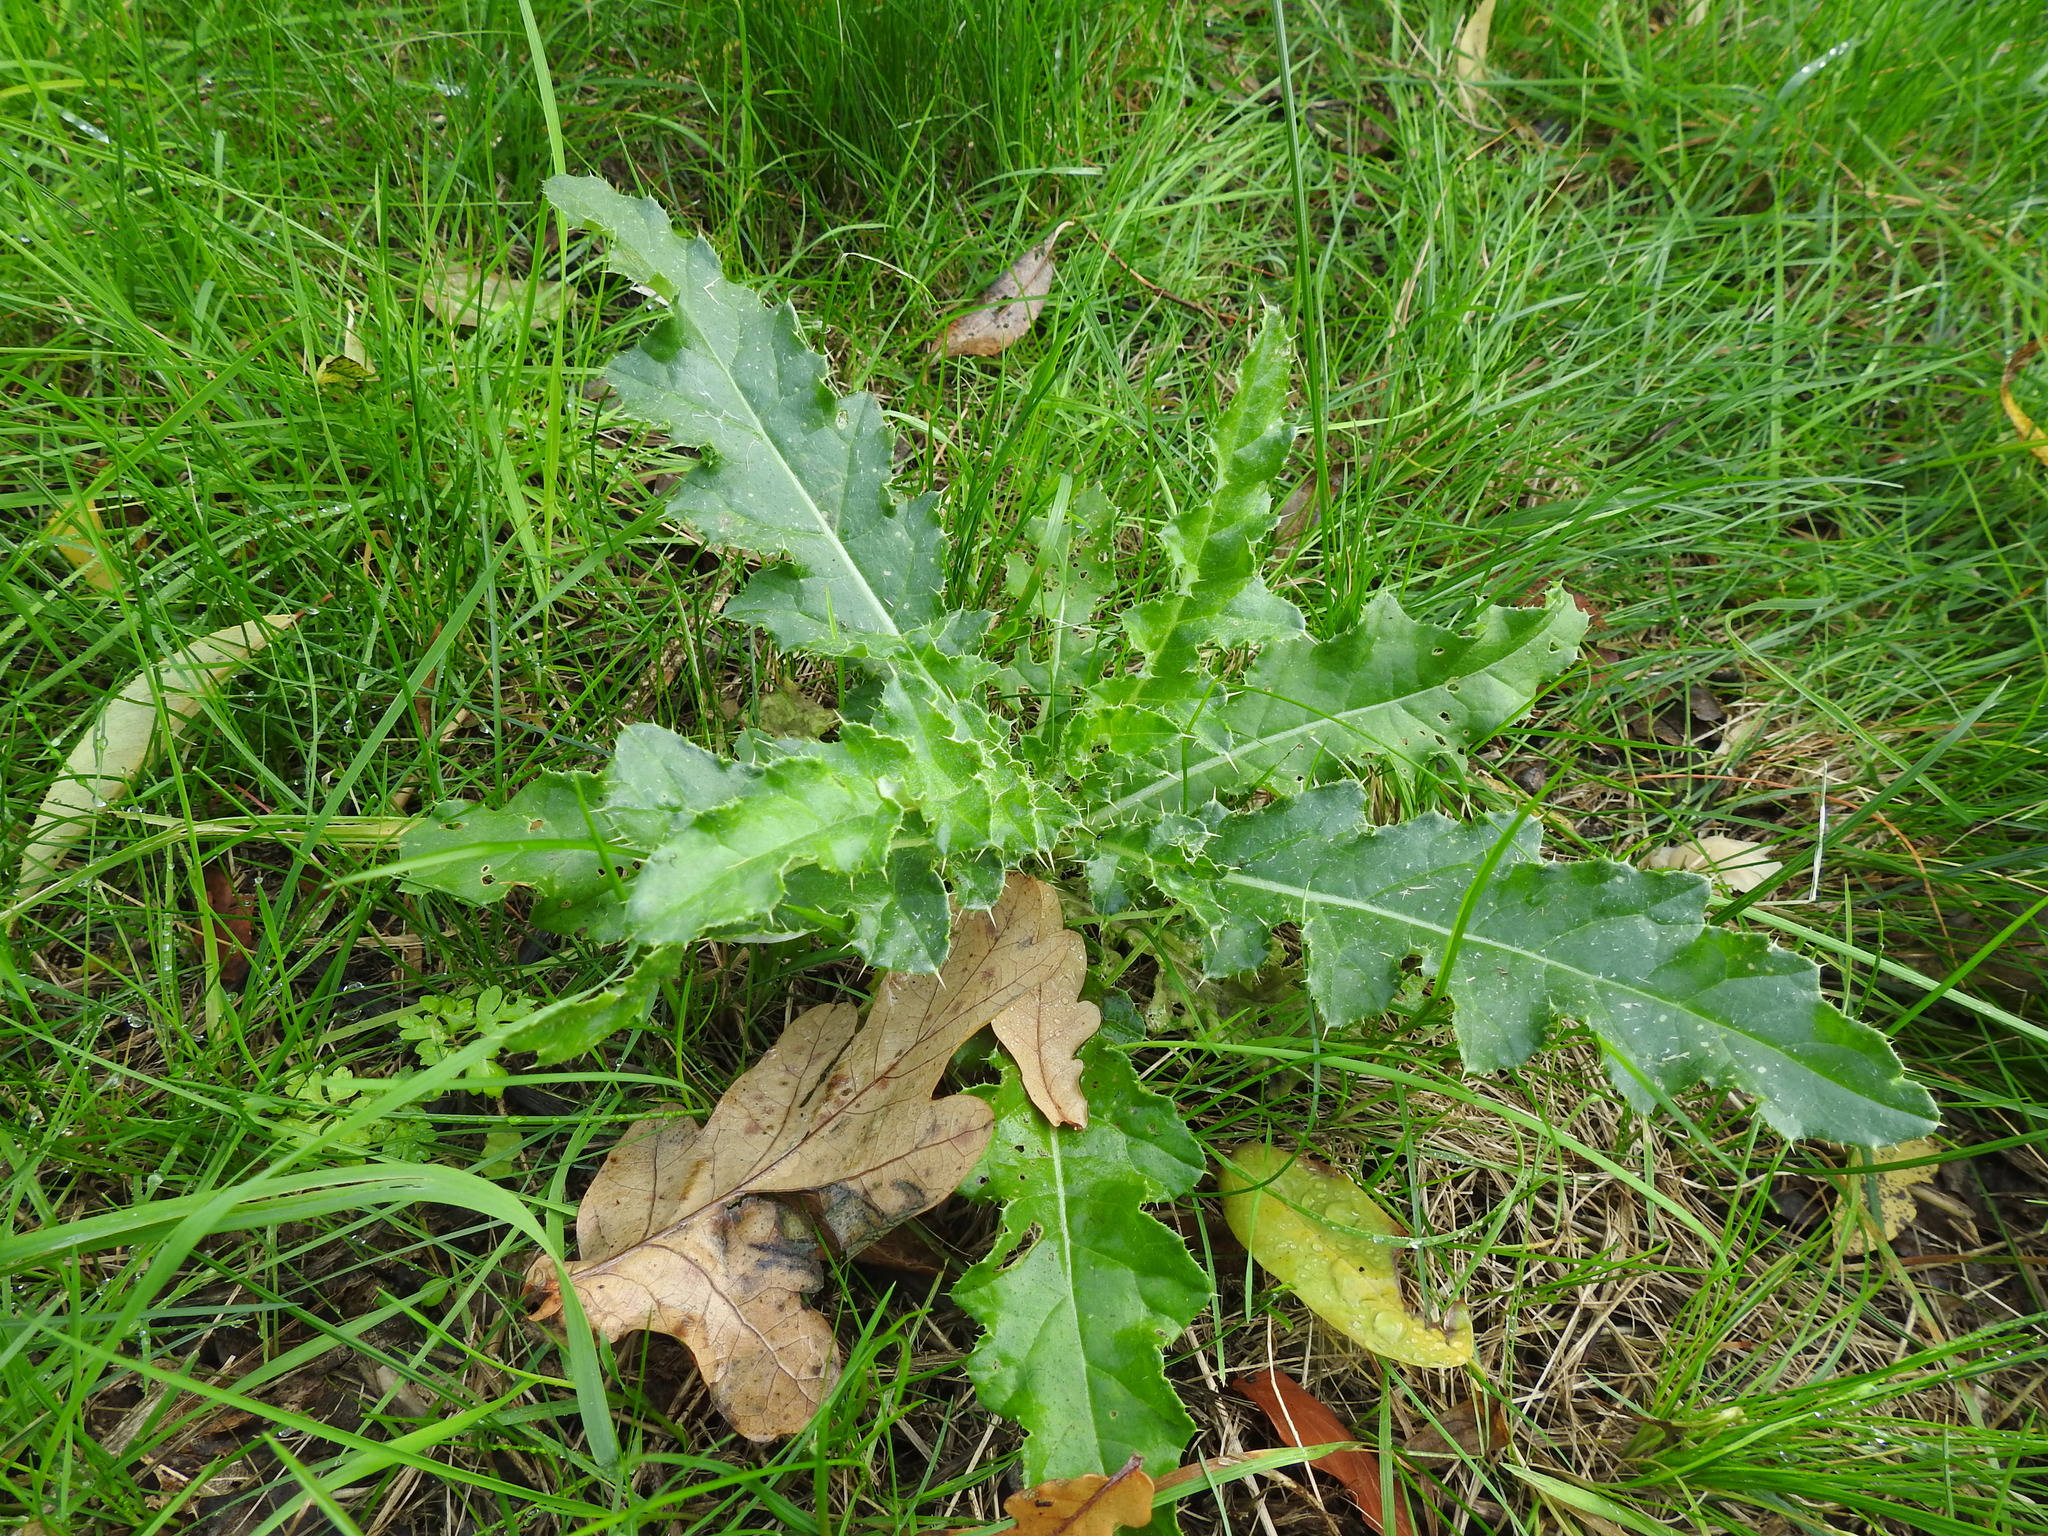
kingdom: Plantae
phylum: Tracheophyta
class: Magnoliopsida
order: Asterales
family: Asteraceae
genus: Cirsium
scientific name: Cirsium arvense
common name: Creeping thistle
